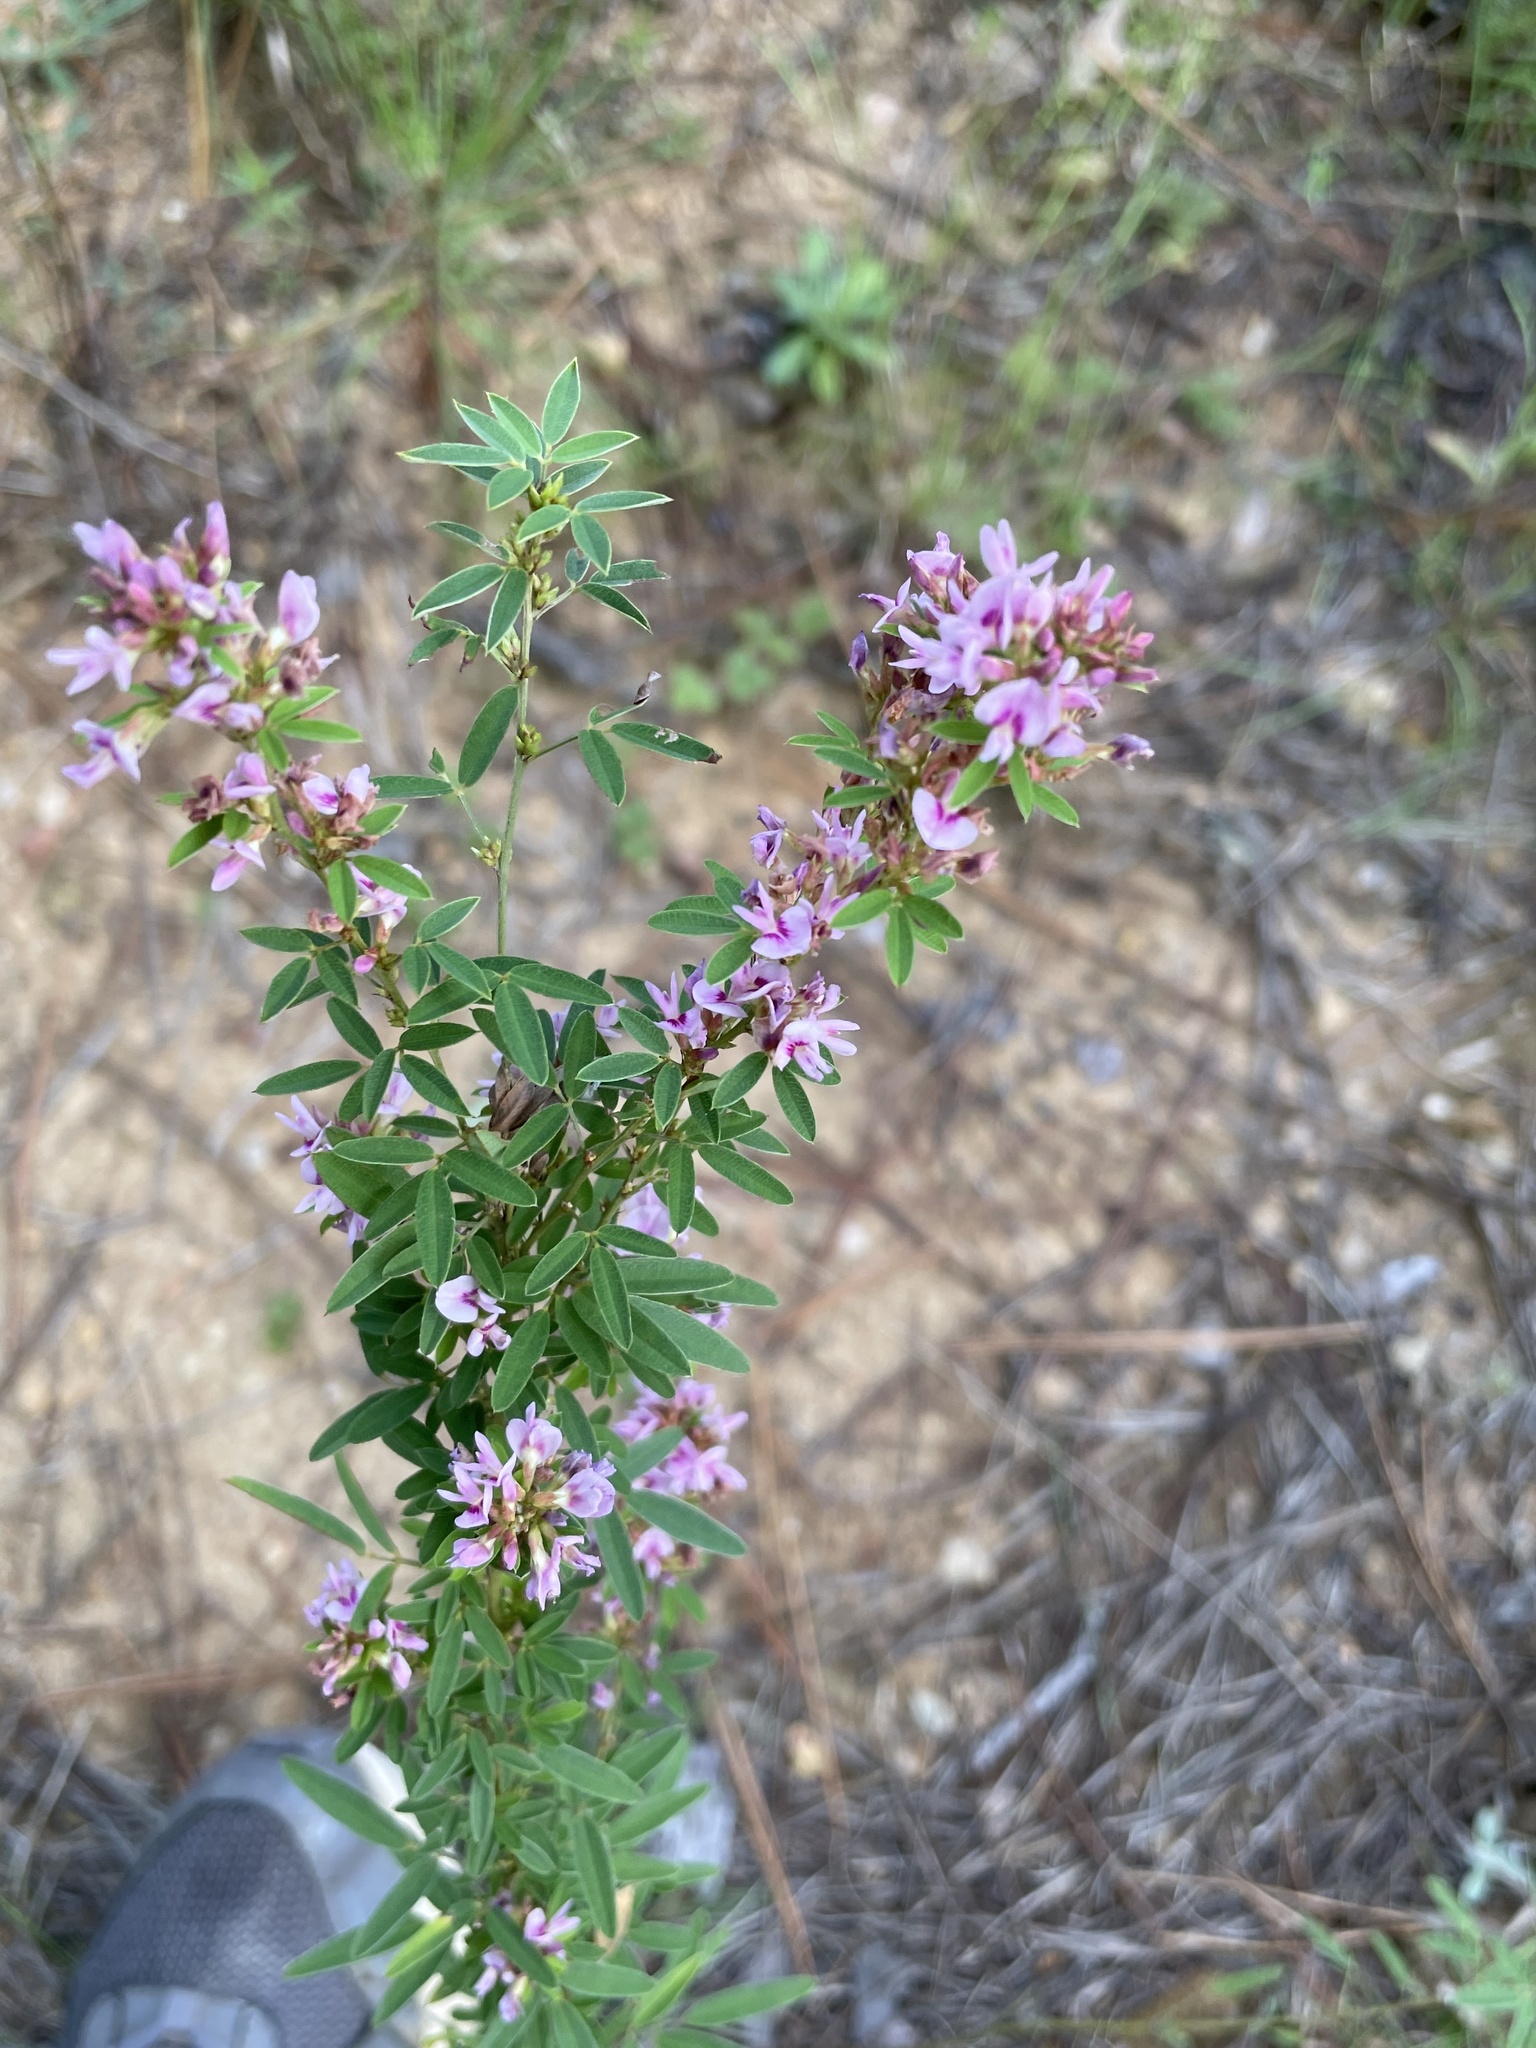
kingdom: Plantae
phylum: Tracheophyta
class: Magnoliopsida
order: Fabales
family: Fabaceae
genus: Lespedeza
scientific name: Lespedeza virginica
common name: Slender bush-clover
